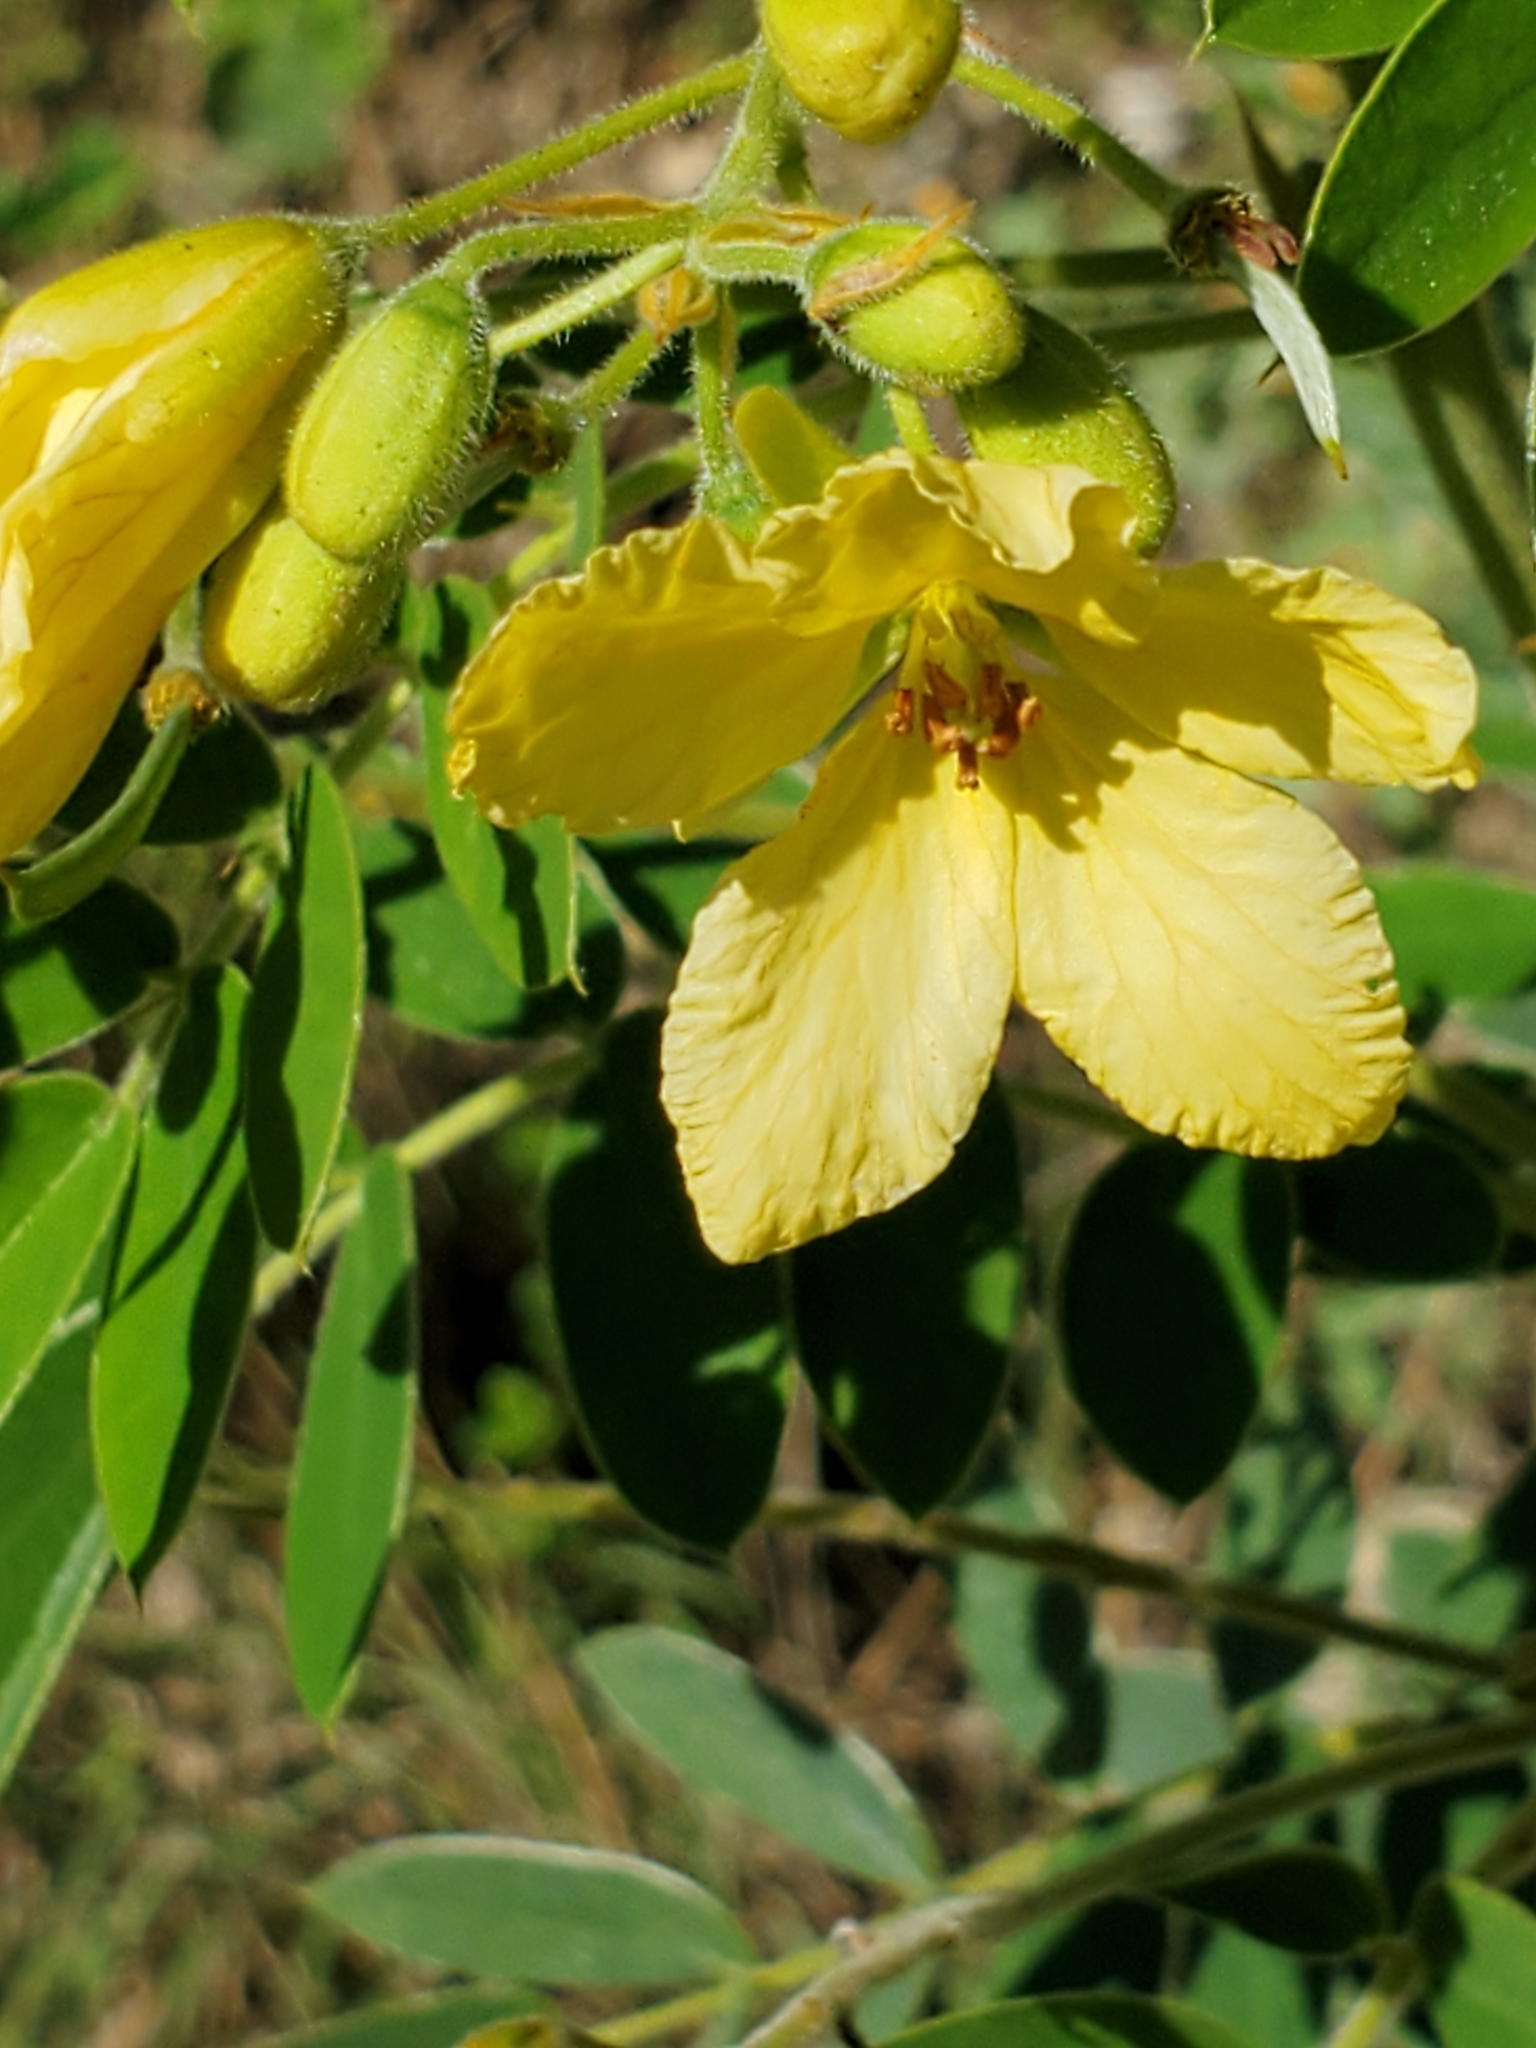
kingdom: Plantae
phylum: Tracheophyta
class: Magnoliopsida
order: Fabales
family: Fabaceae
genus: Senna
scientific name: Senna lindheimeriana
